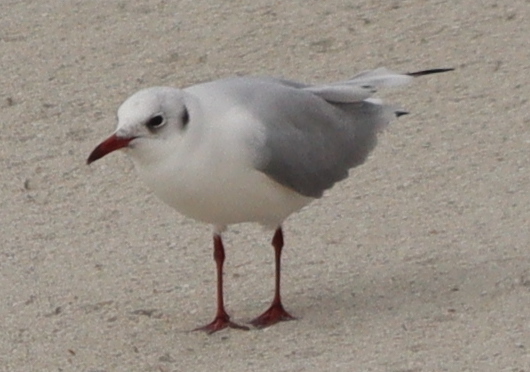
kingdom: Animalia
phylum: Chordata
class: Aves
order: Charadriiformes
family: Laridae
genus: Chroicocephalus
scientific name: Chroicocephalus ridibundus
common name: Black-headed gull
